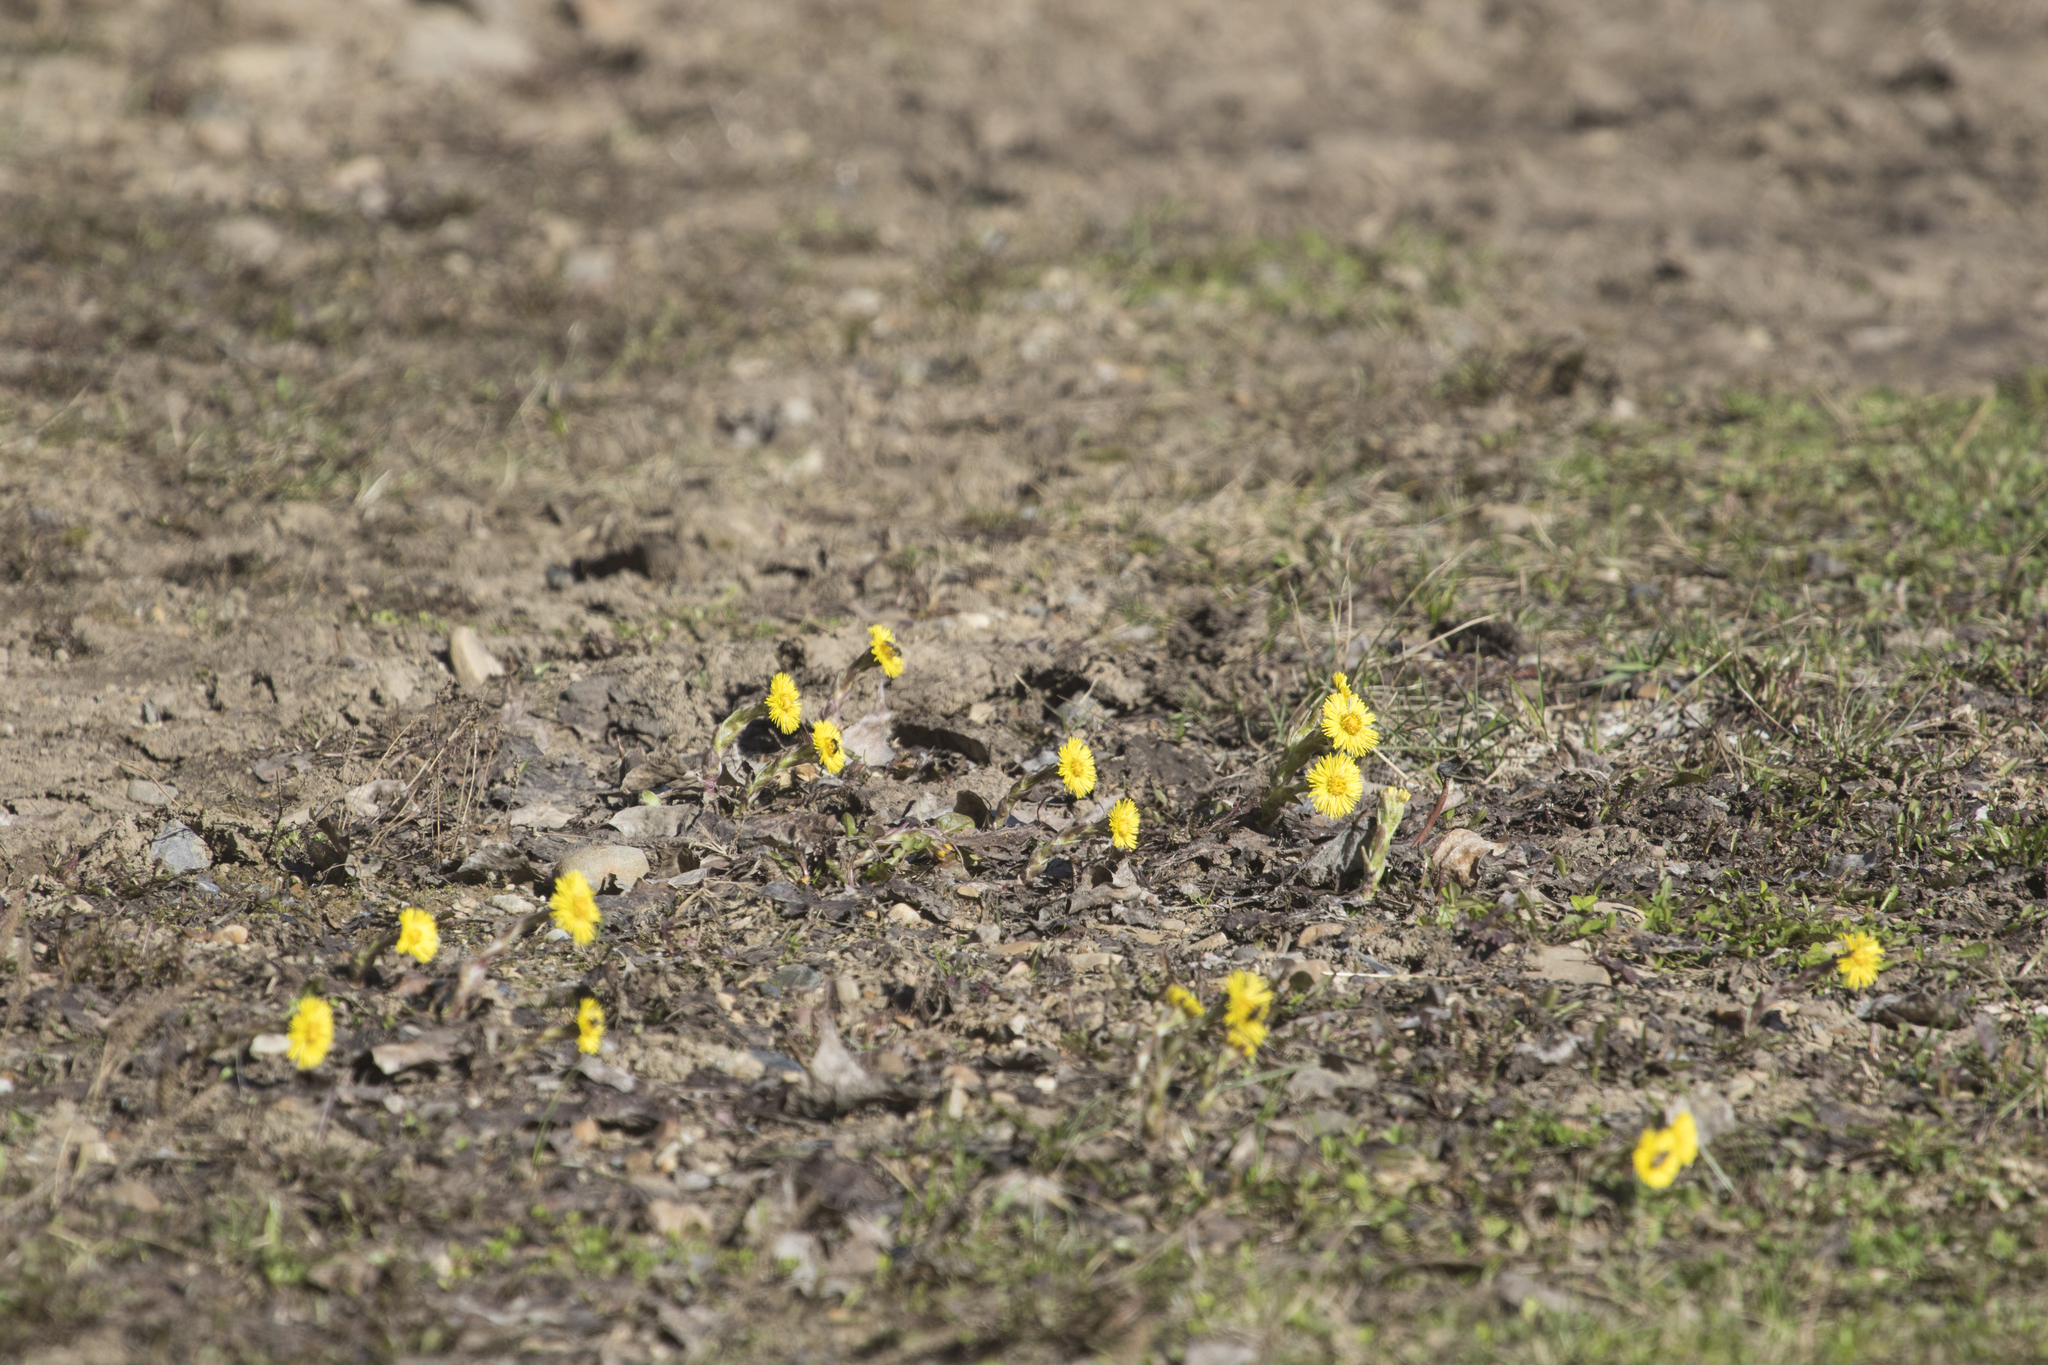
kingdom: Plantae
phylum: Tracheophyta
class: Magnoliopsida
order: Asterales
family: Asteraceae
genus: Tussilago
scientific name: Tussilago farfara
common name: Coltsfoot
